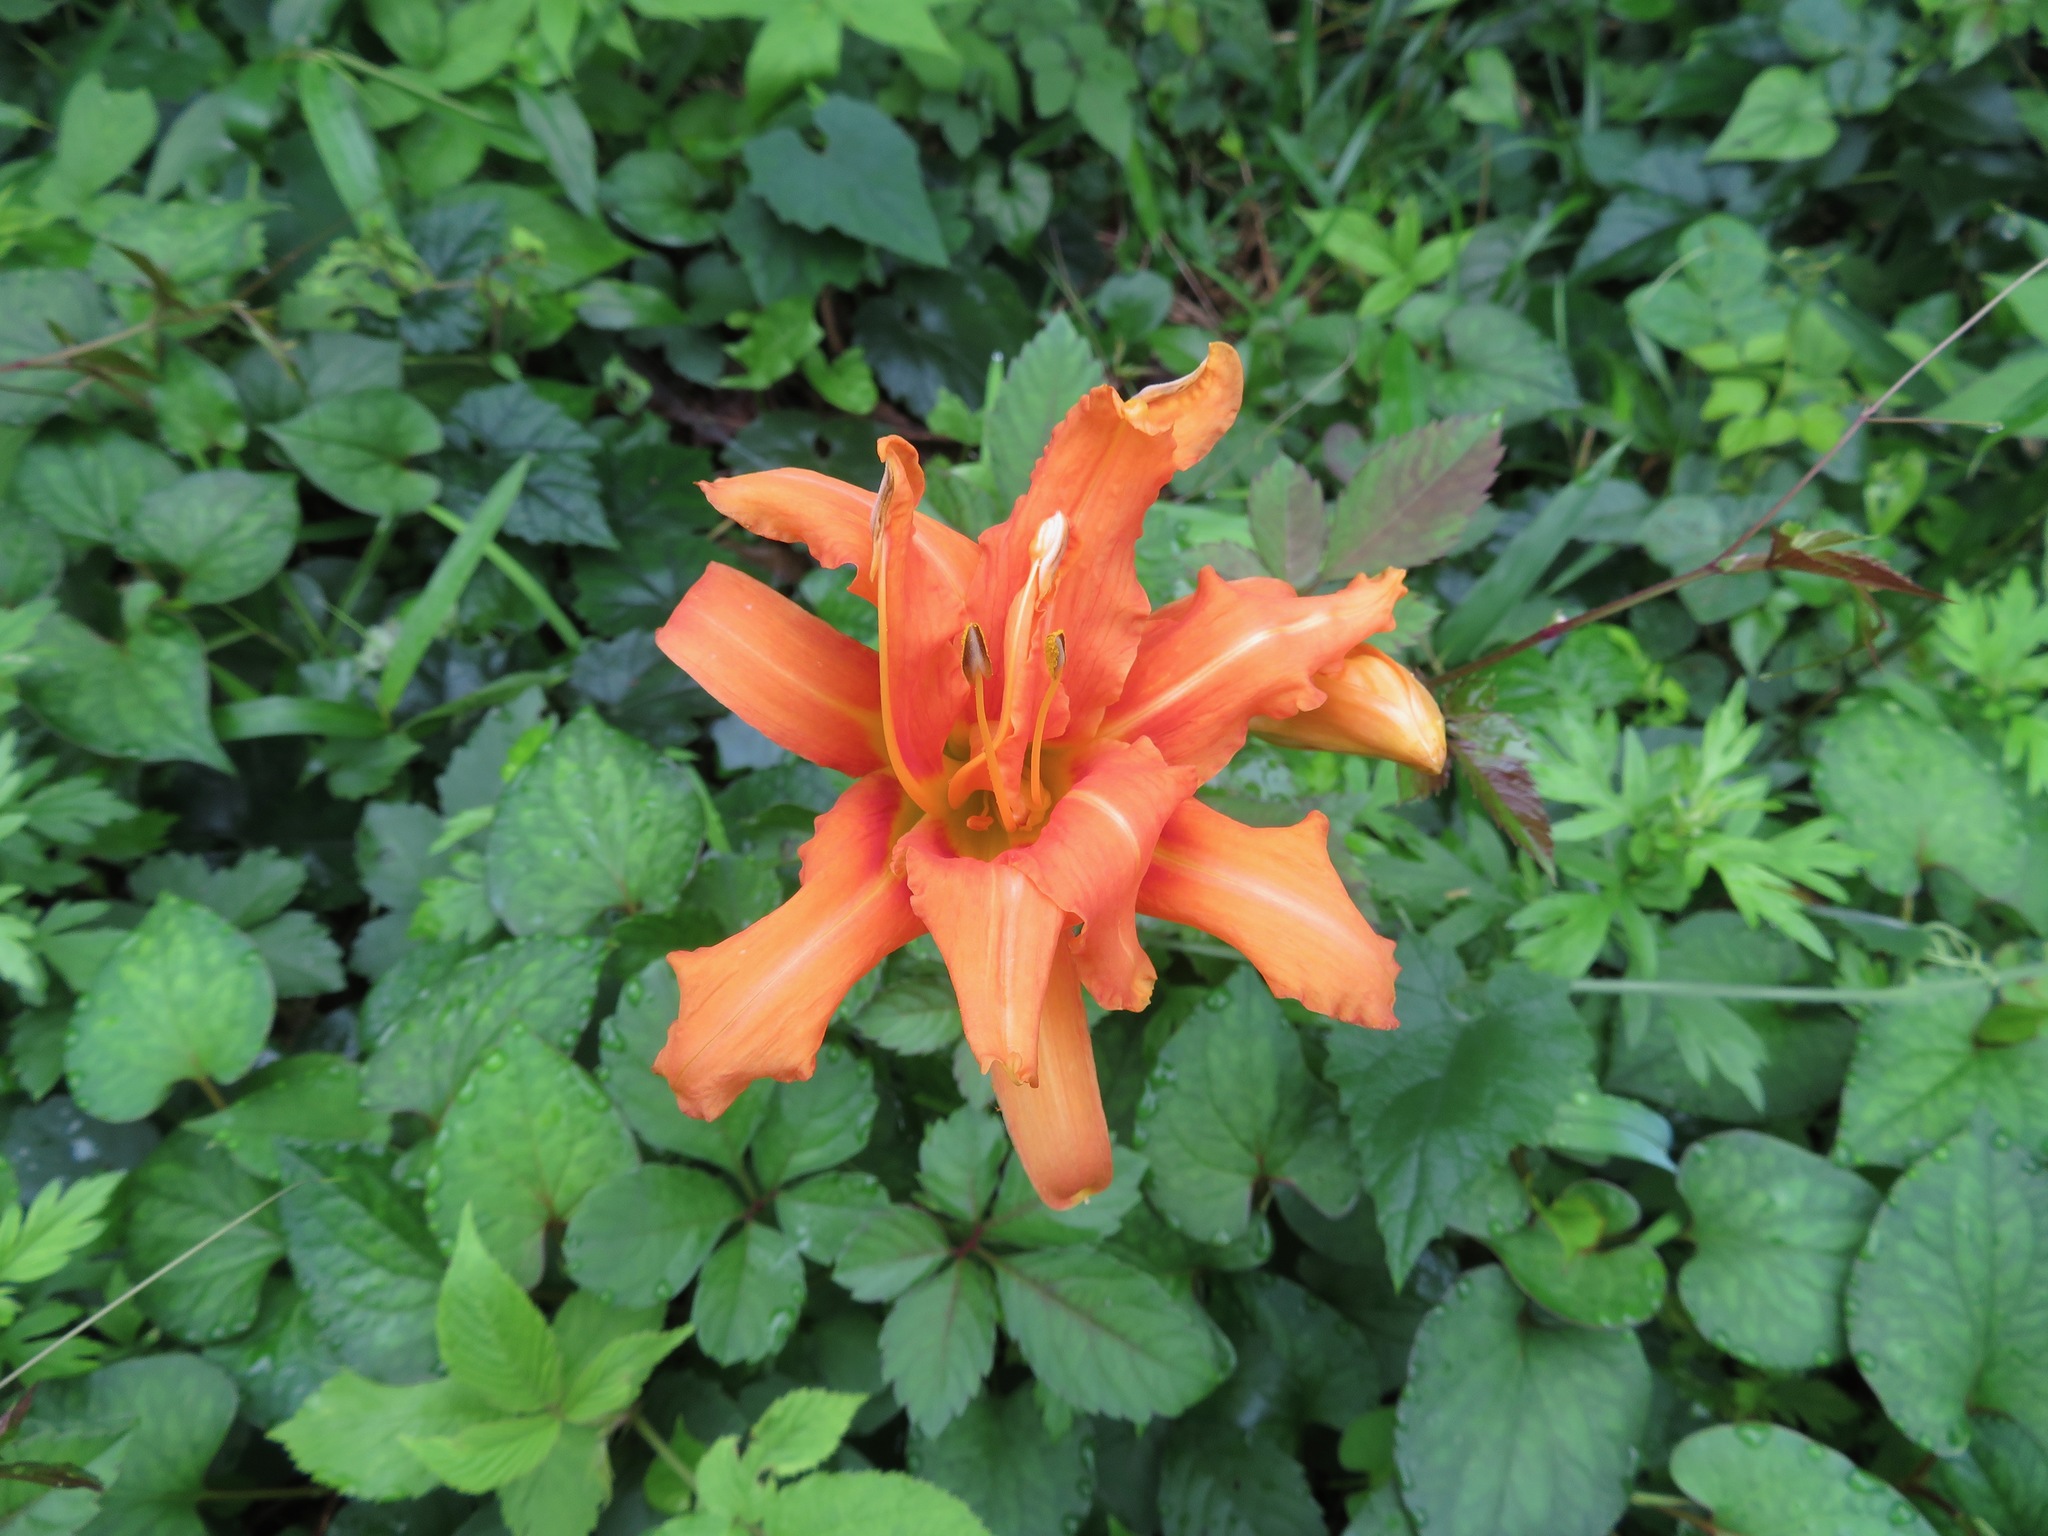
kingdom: Plantae
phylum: Tracheophyta
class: Liliopsida
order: Asparagales
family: Asphodelaceae
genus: Hemerocallis
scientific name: Hemerocallis fulva
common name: Orange day-lily
